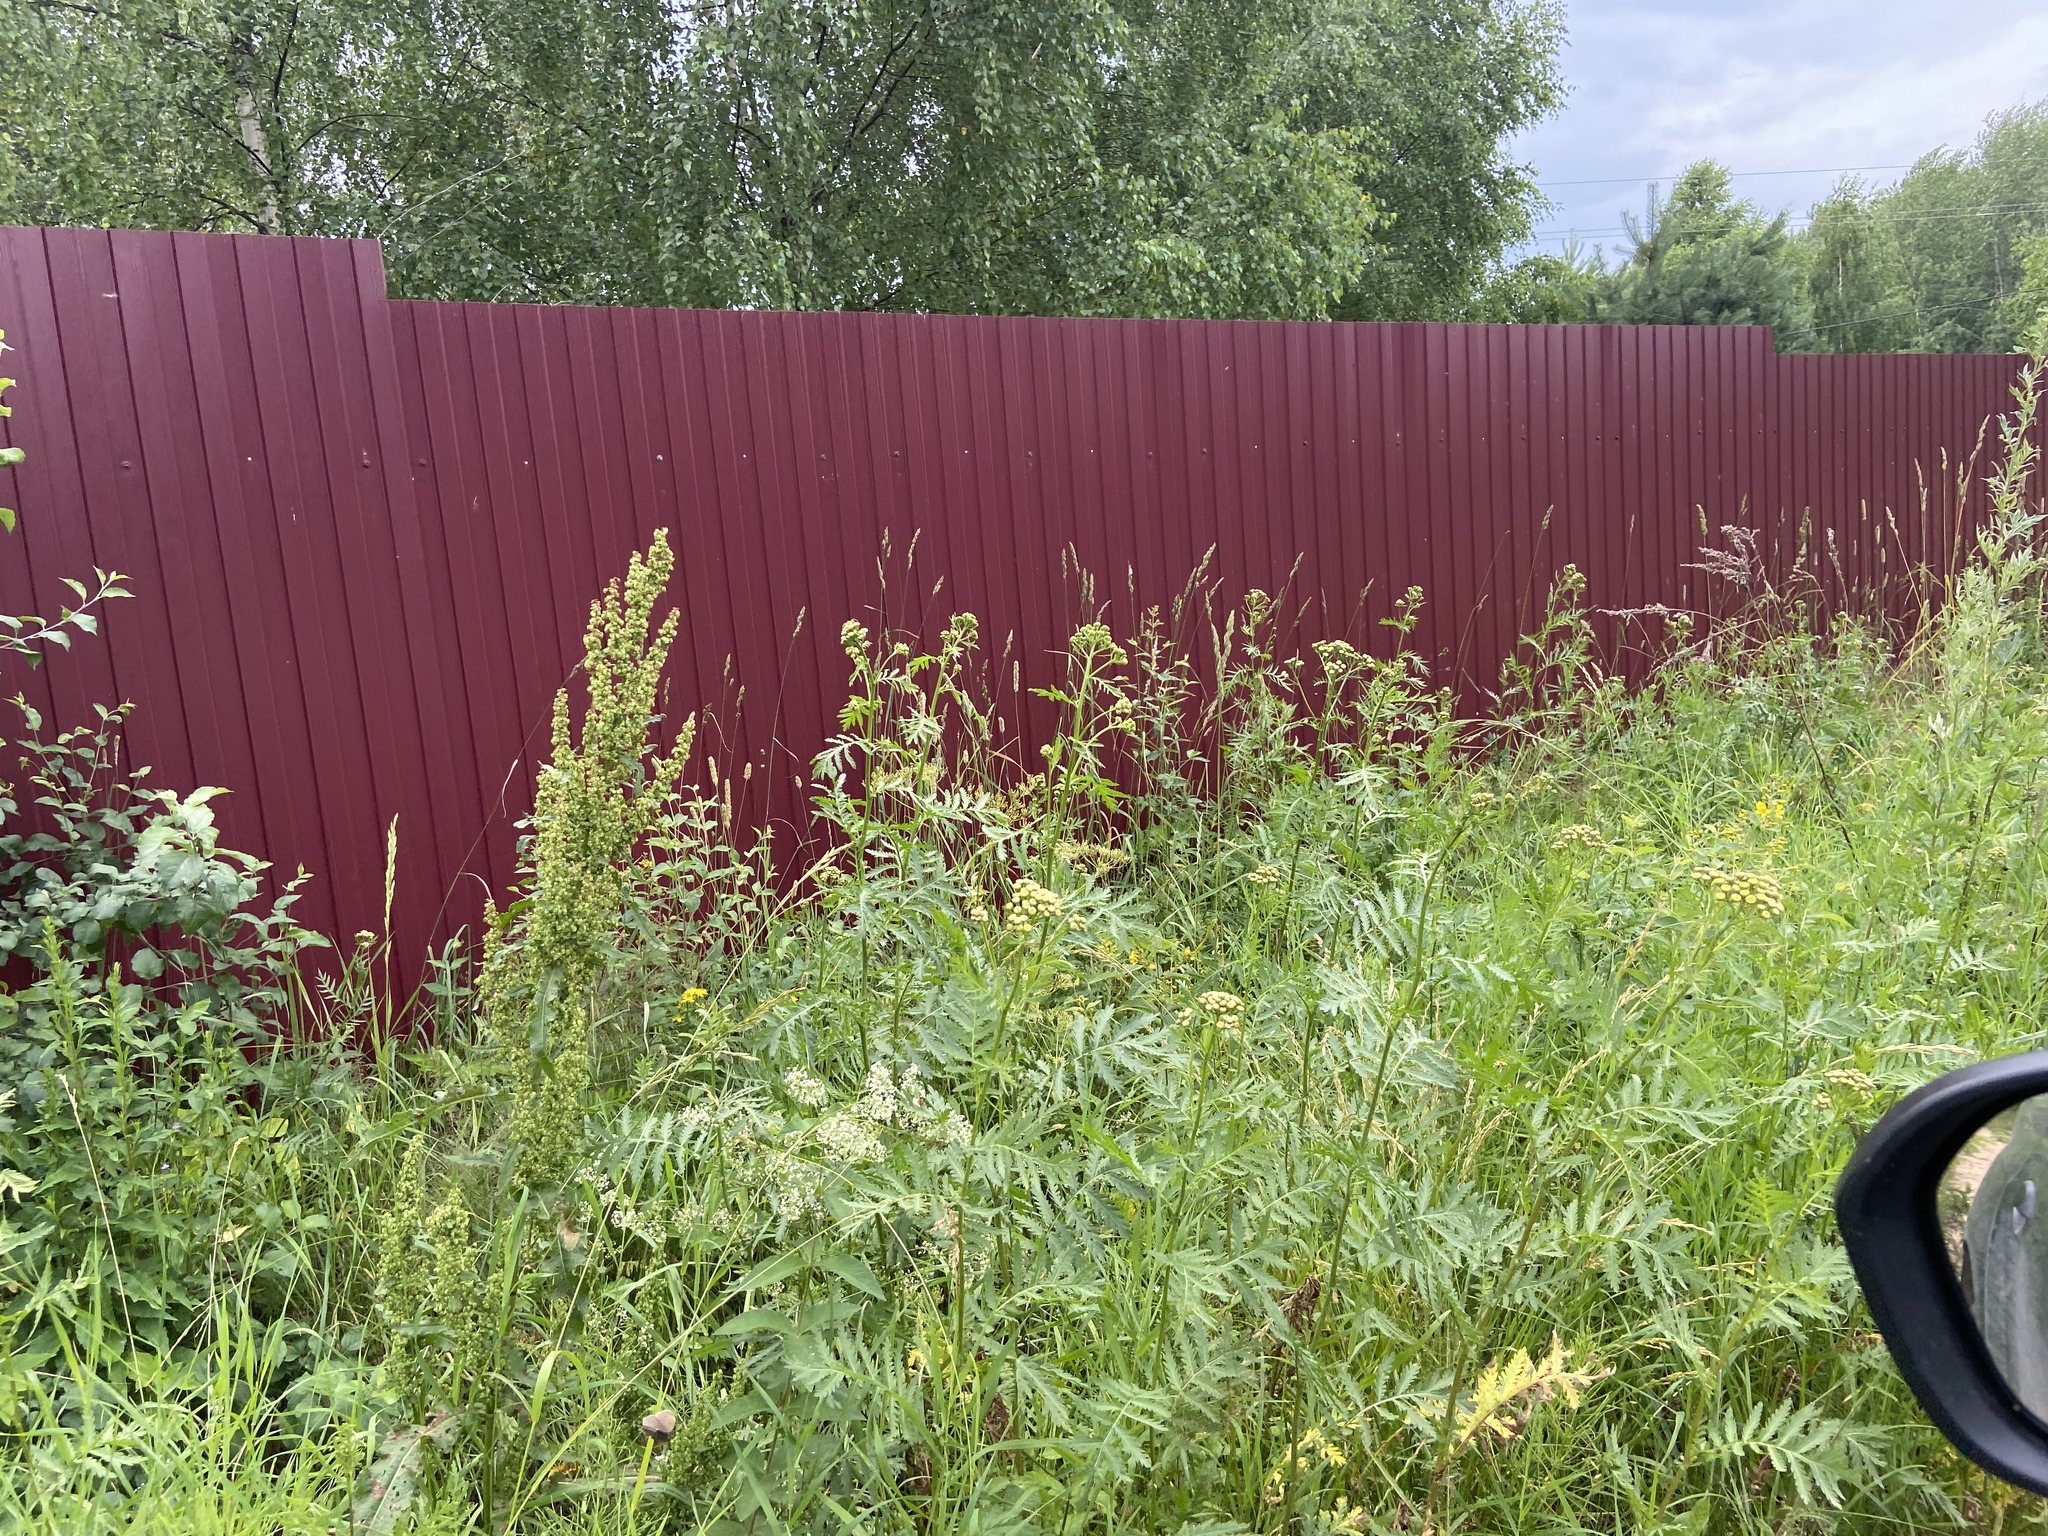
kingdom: Plantae
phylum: Tracheophyta
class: Magnoliopsida
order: Asterales
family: Asteraceae
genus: Tanacetum
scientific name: Tanacetum vulgare
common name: Common tansy
